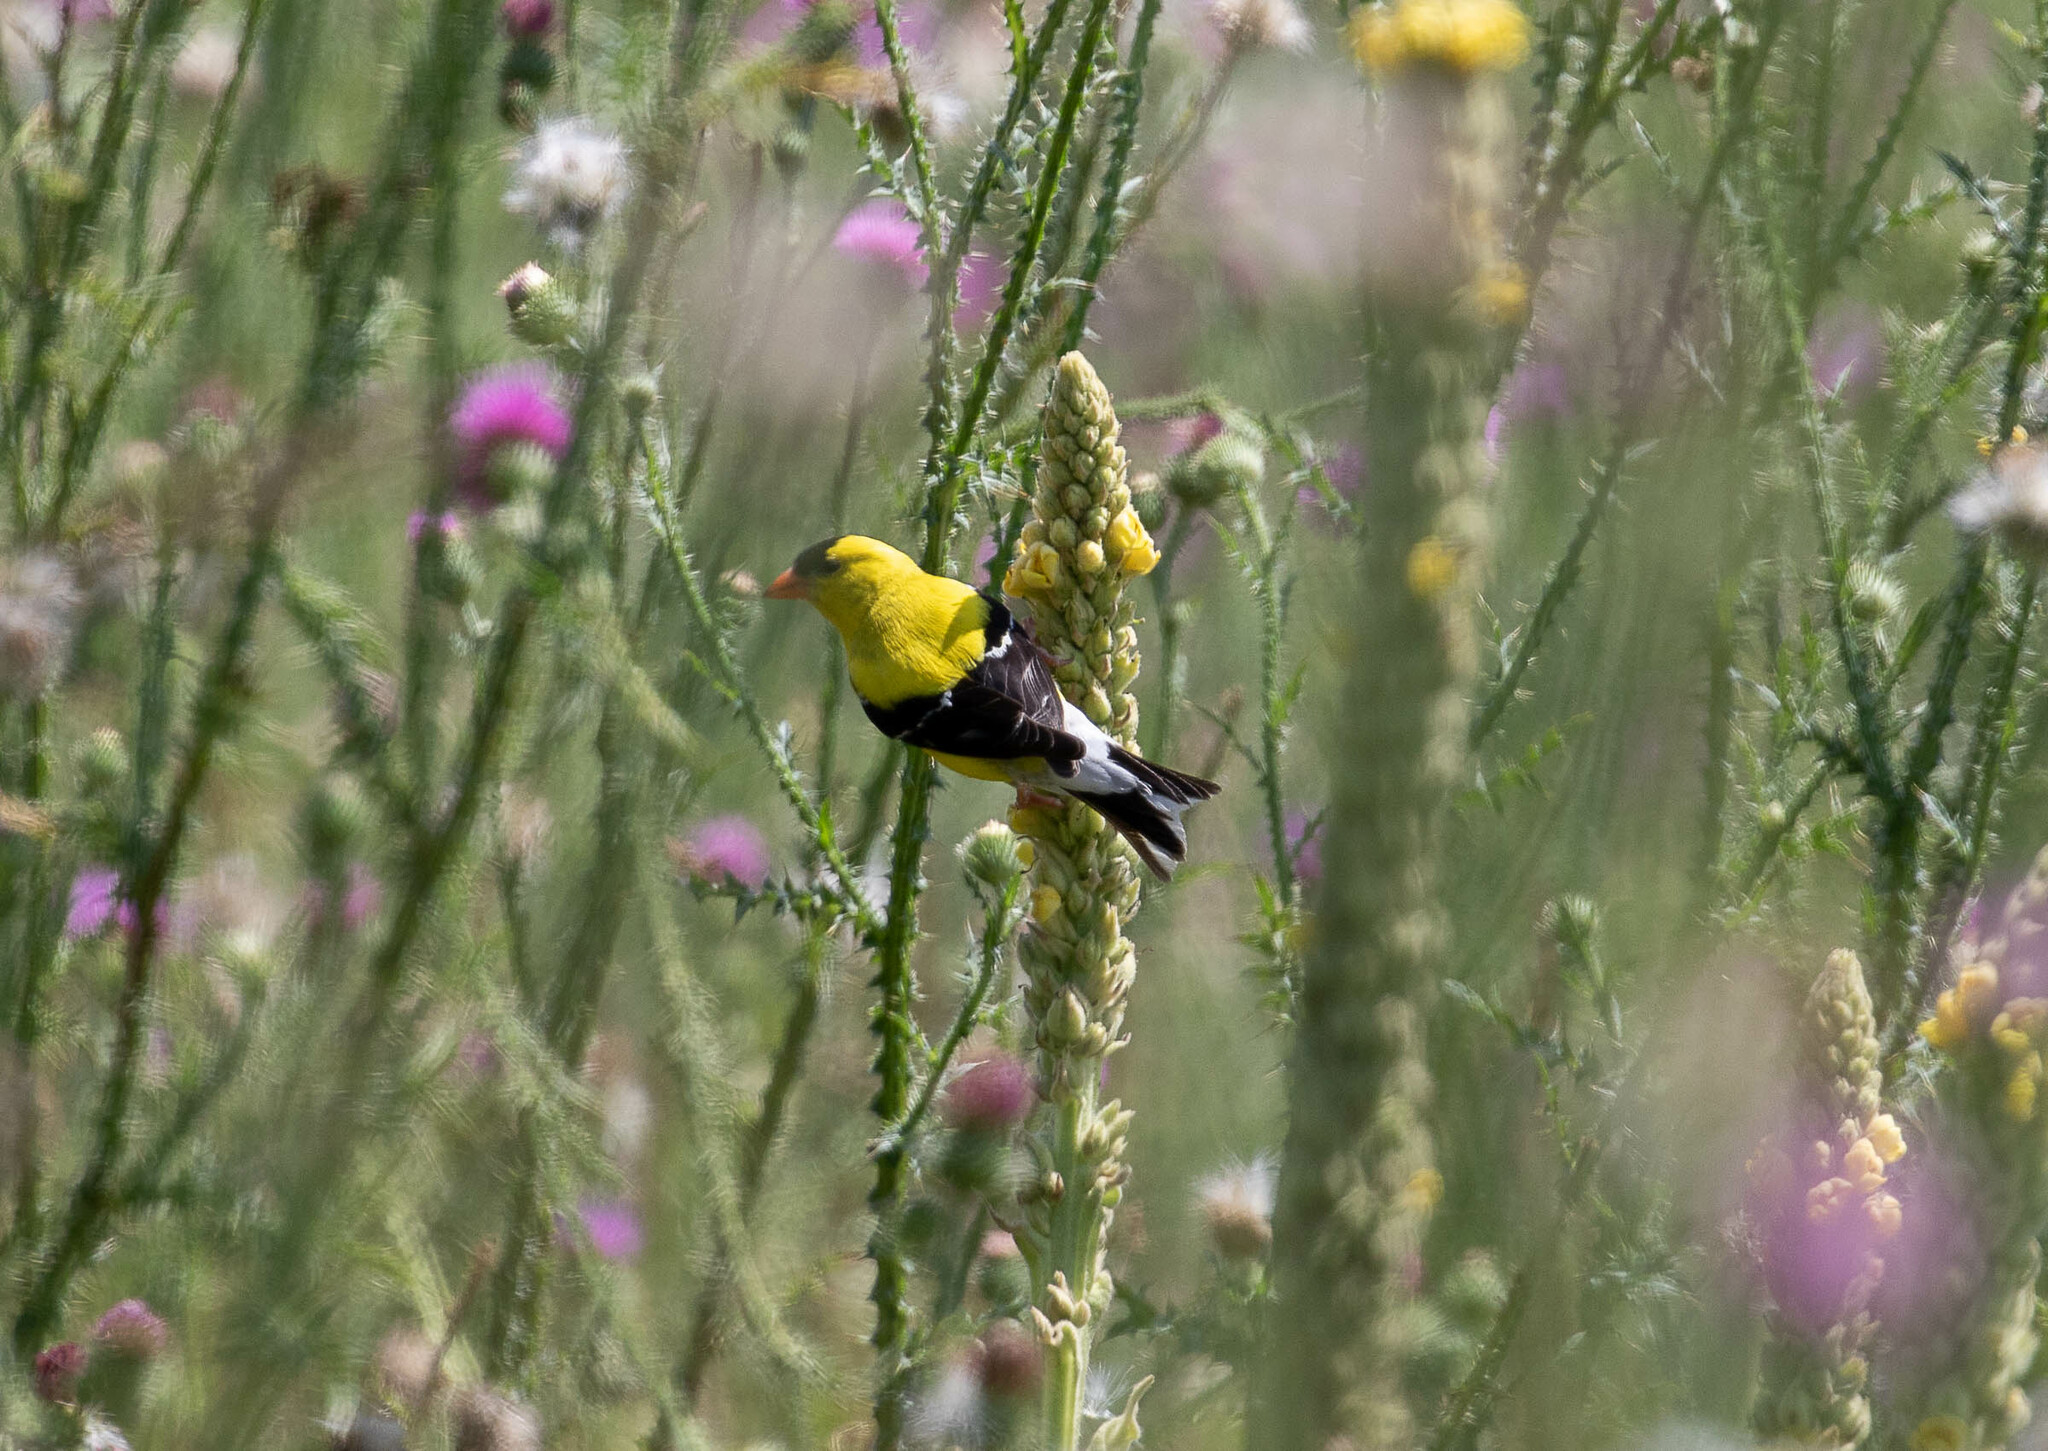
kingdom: Animalia
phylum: Chordata
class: Aves
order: Passeriformes
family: Fringillidae
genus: Spinus
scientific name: Spinus tristis
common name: American goldfinch
